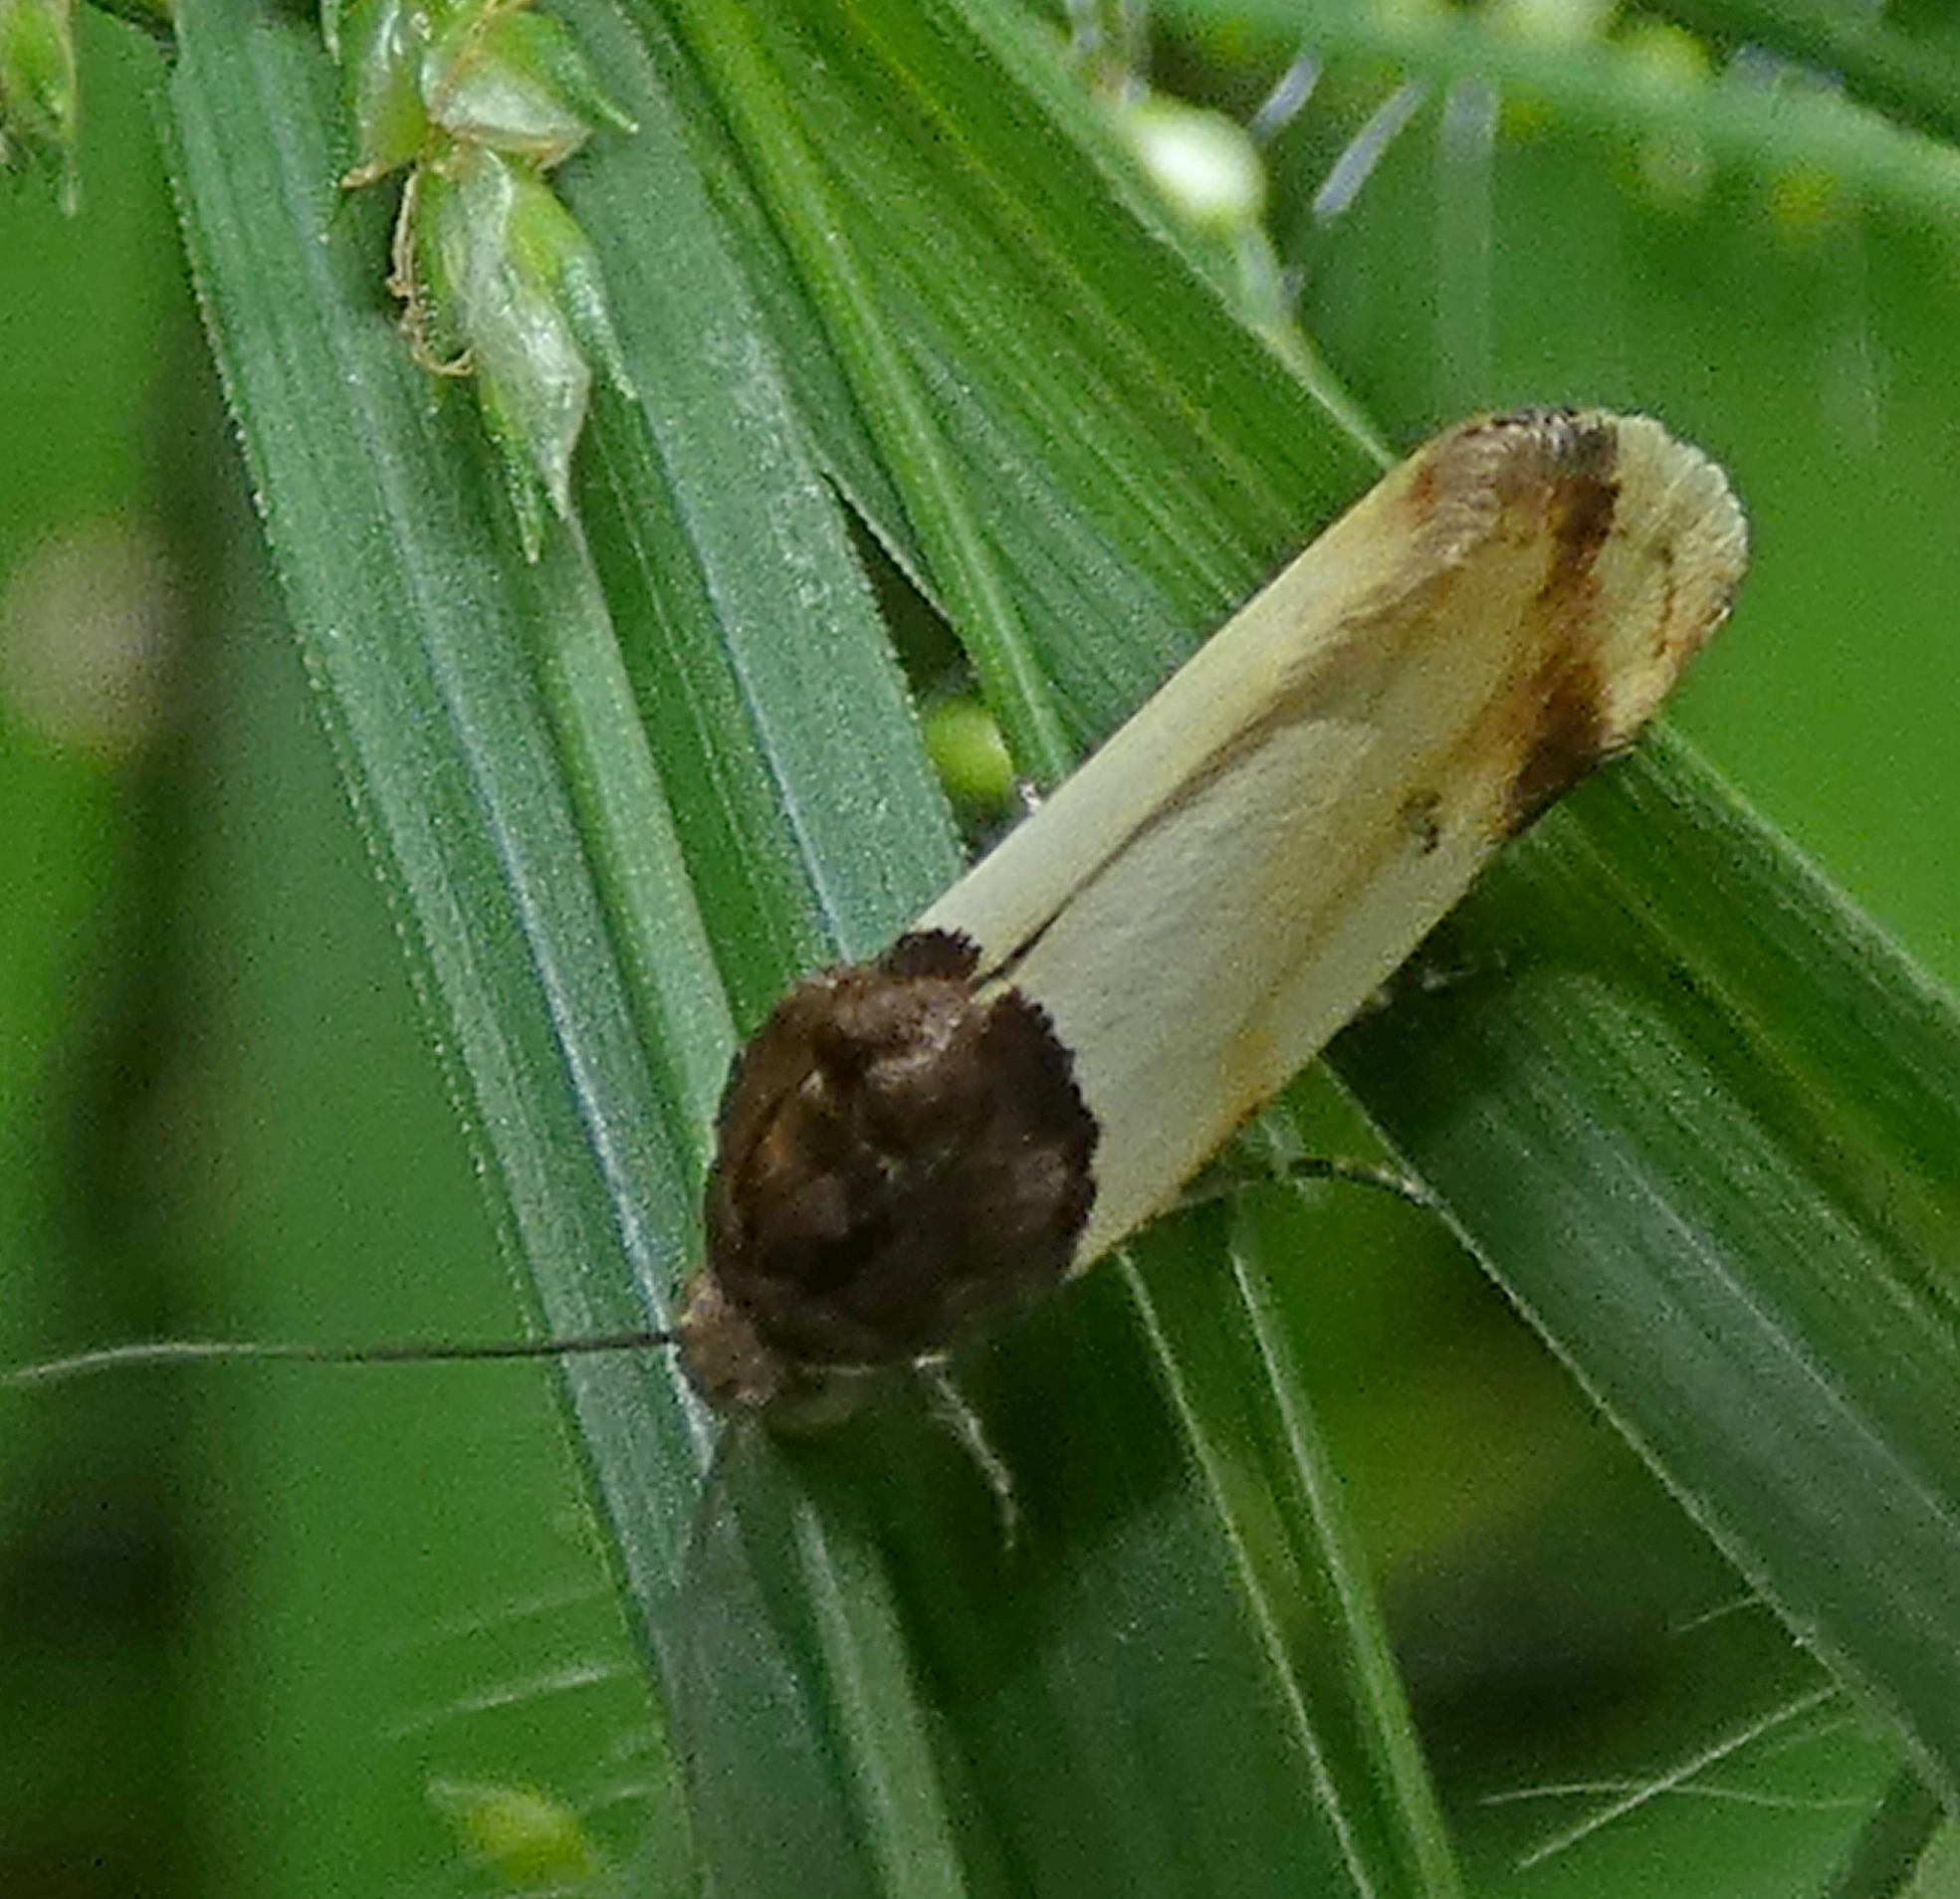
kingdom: Animalia
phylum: Arthropoda
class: Insecta
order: Lepidoptera
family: Noctuidae
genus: Spragueia
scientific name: Spragueia apicalis
